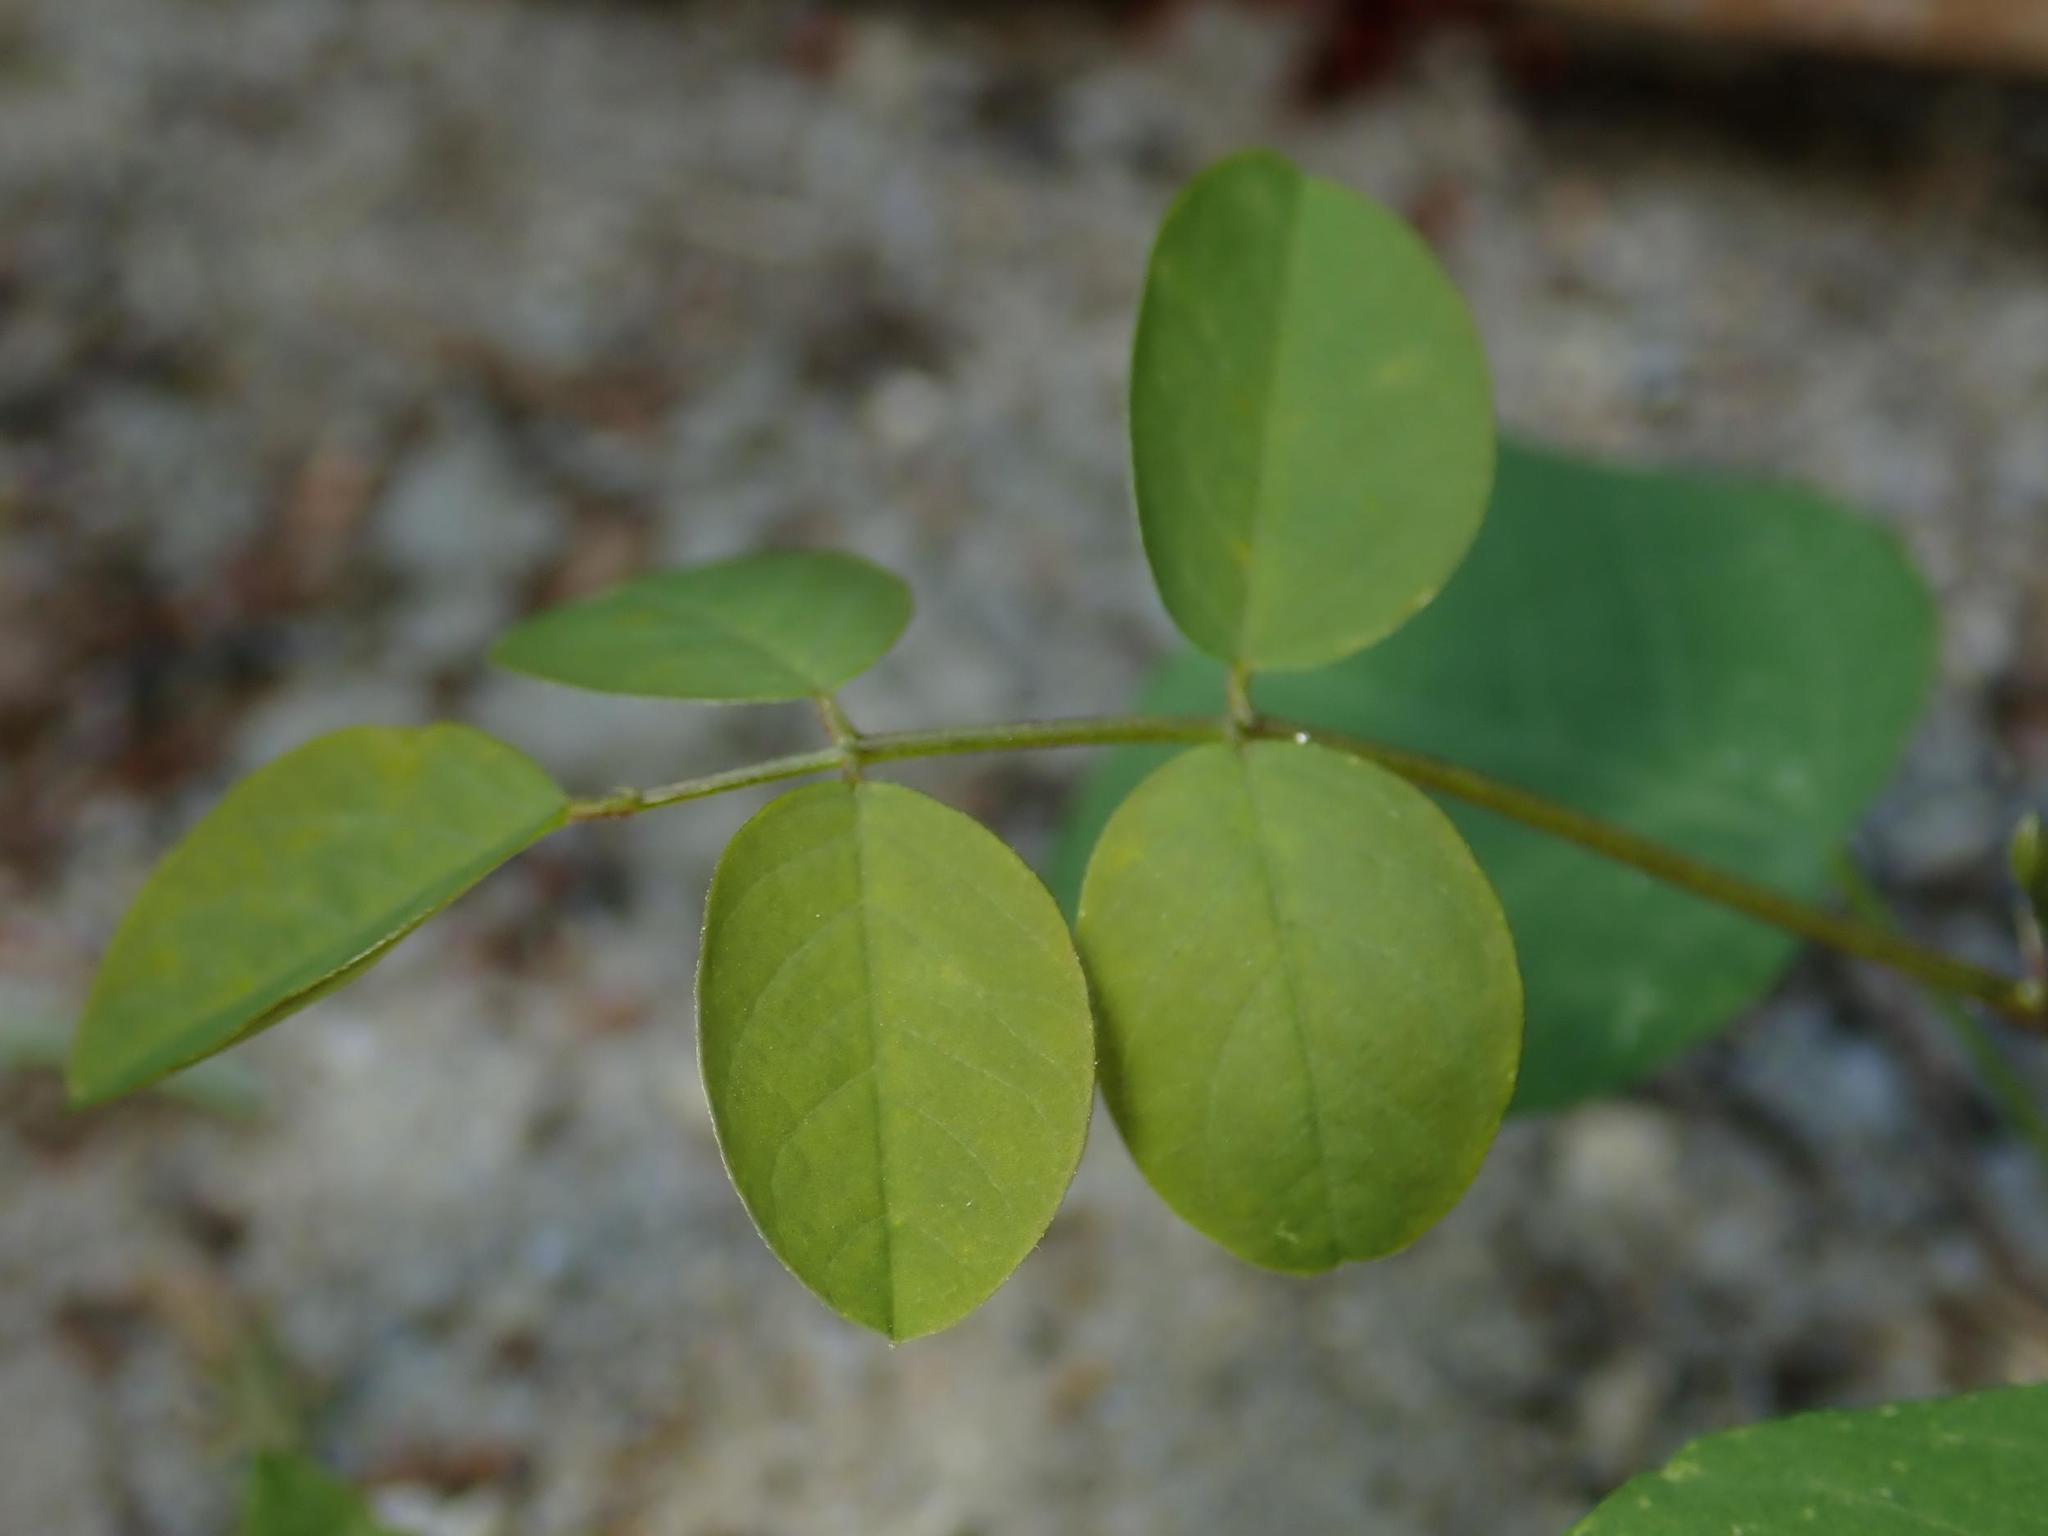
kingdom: Plantae
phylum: Tracheophyta
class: Magnoliopsida
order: Fabales
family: Fabaceae
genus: Robinia
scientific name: Robinia pseudoacacia
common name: Black locust
